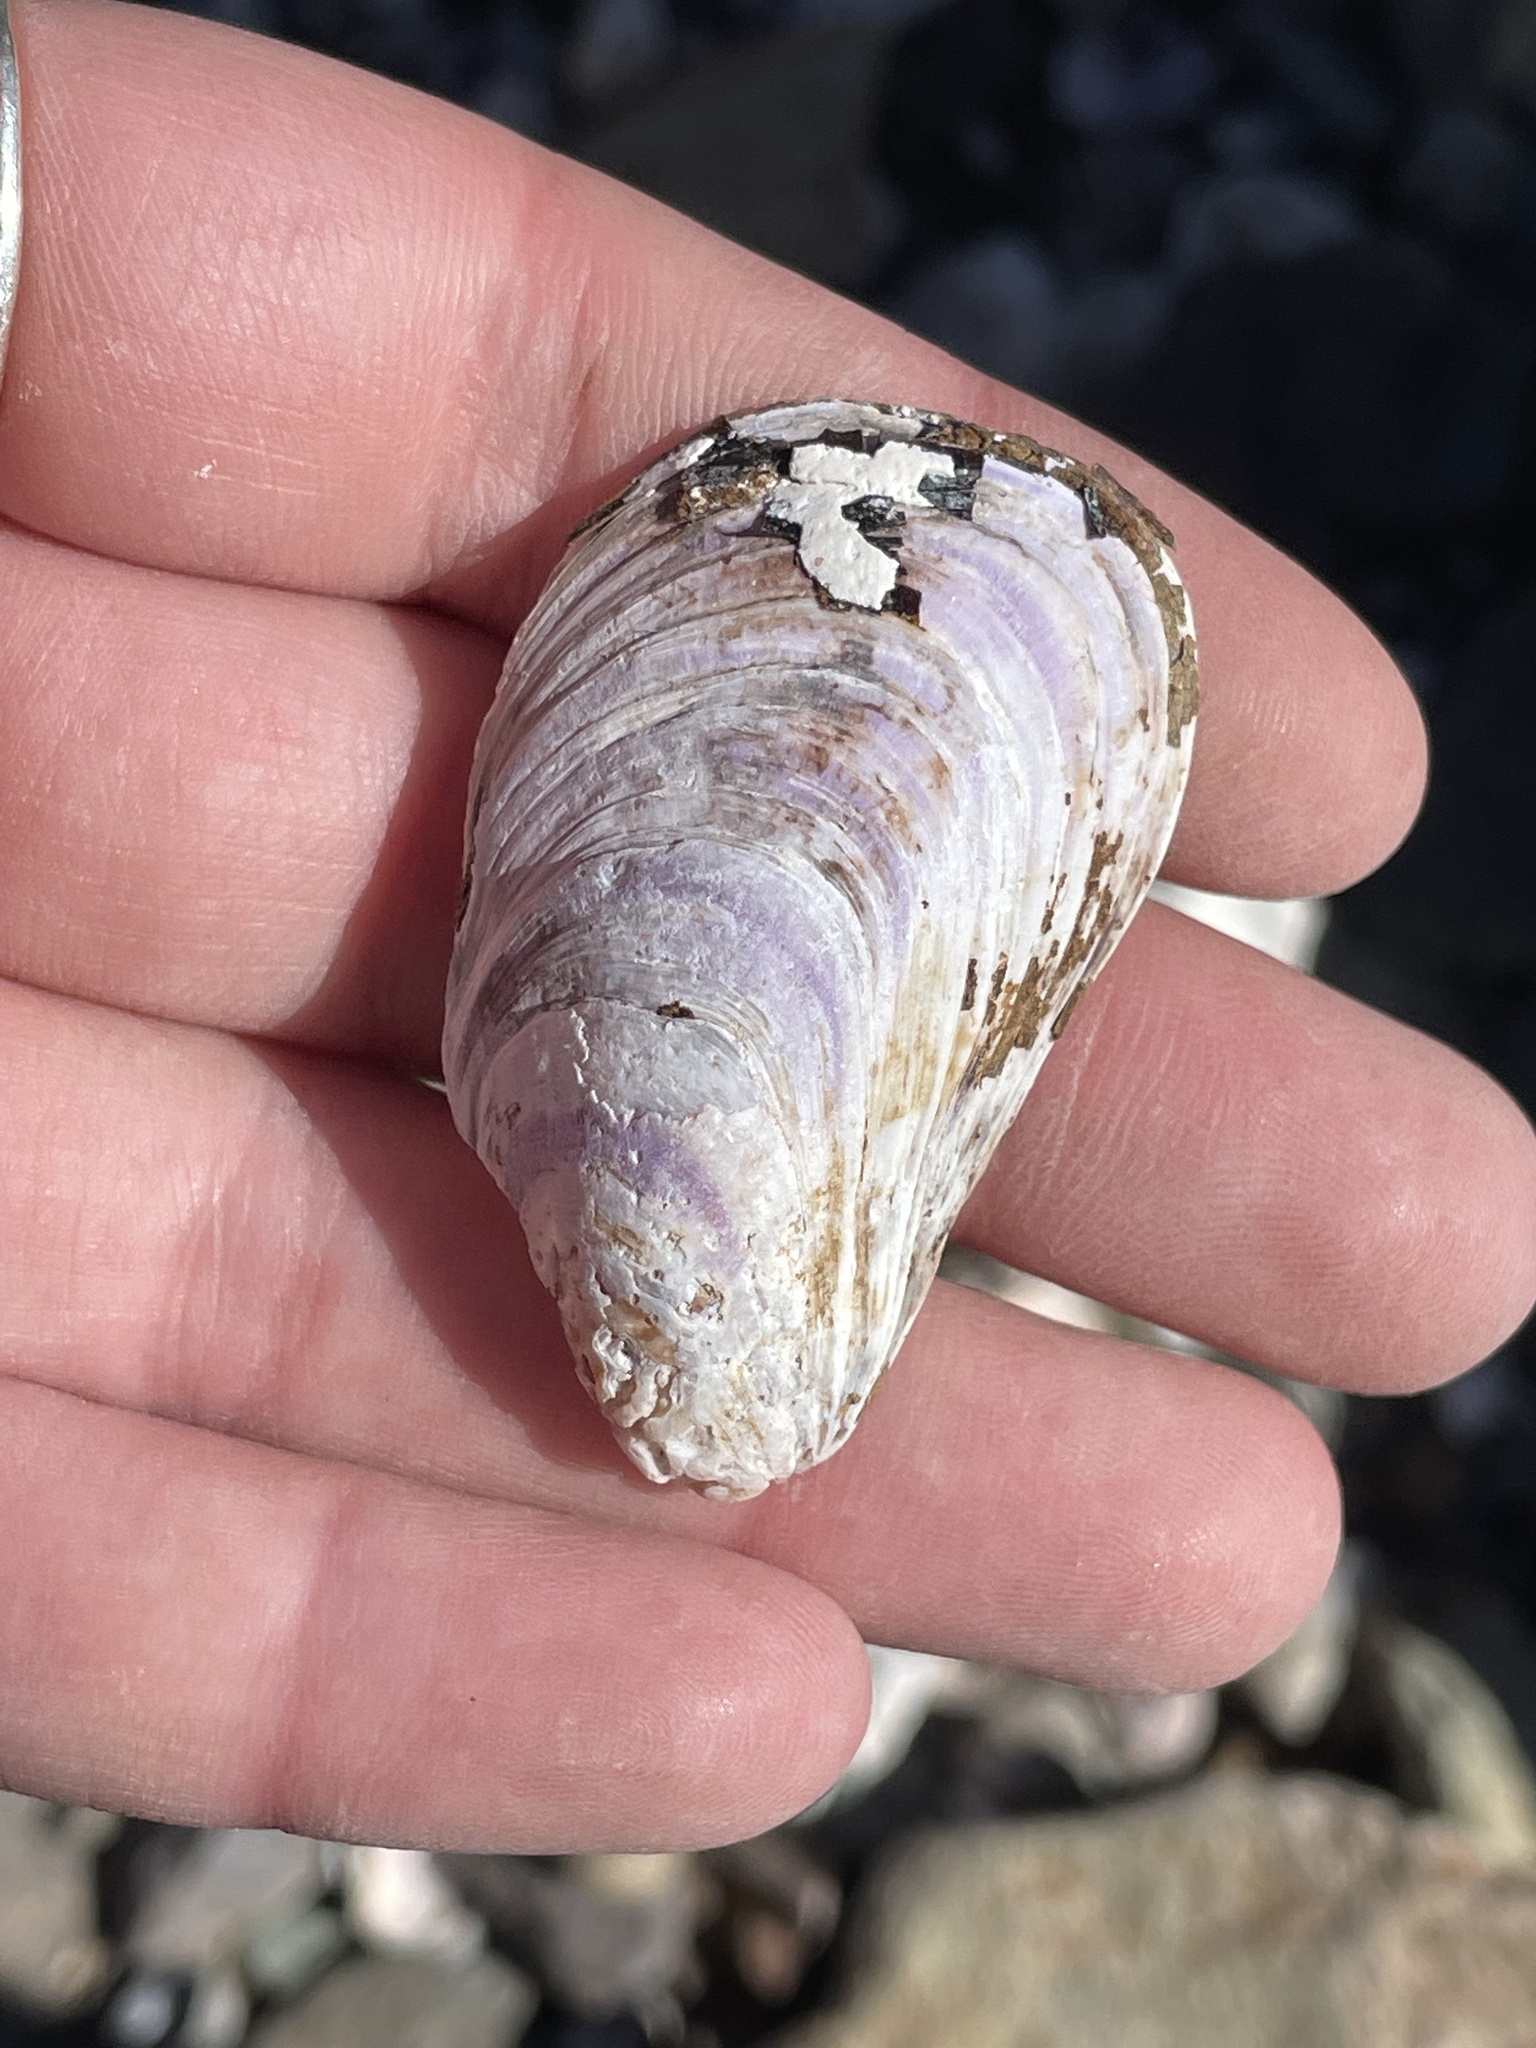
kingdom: Animalia
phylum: Mollusca
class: Bivalvia
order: Mytilida
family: Mytilidae
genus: Modiolus
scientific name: Modiolus modiolus
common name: Horse-mussel
